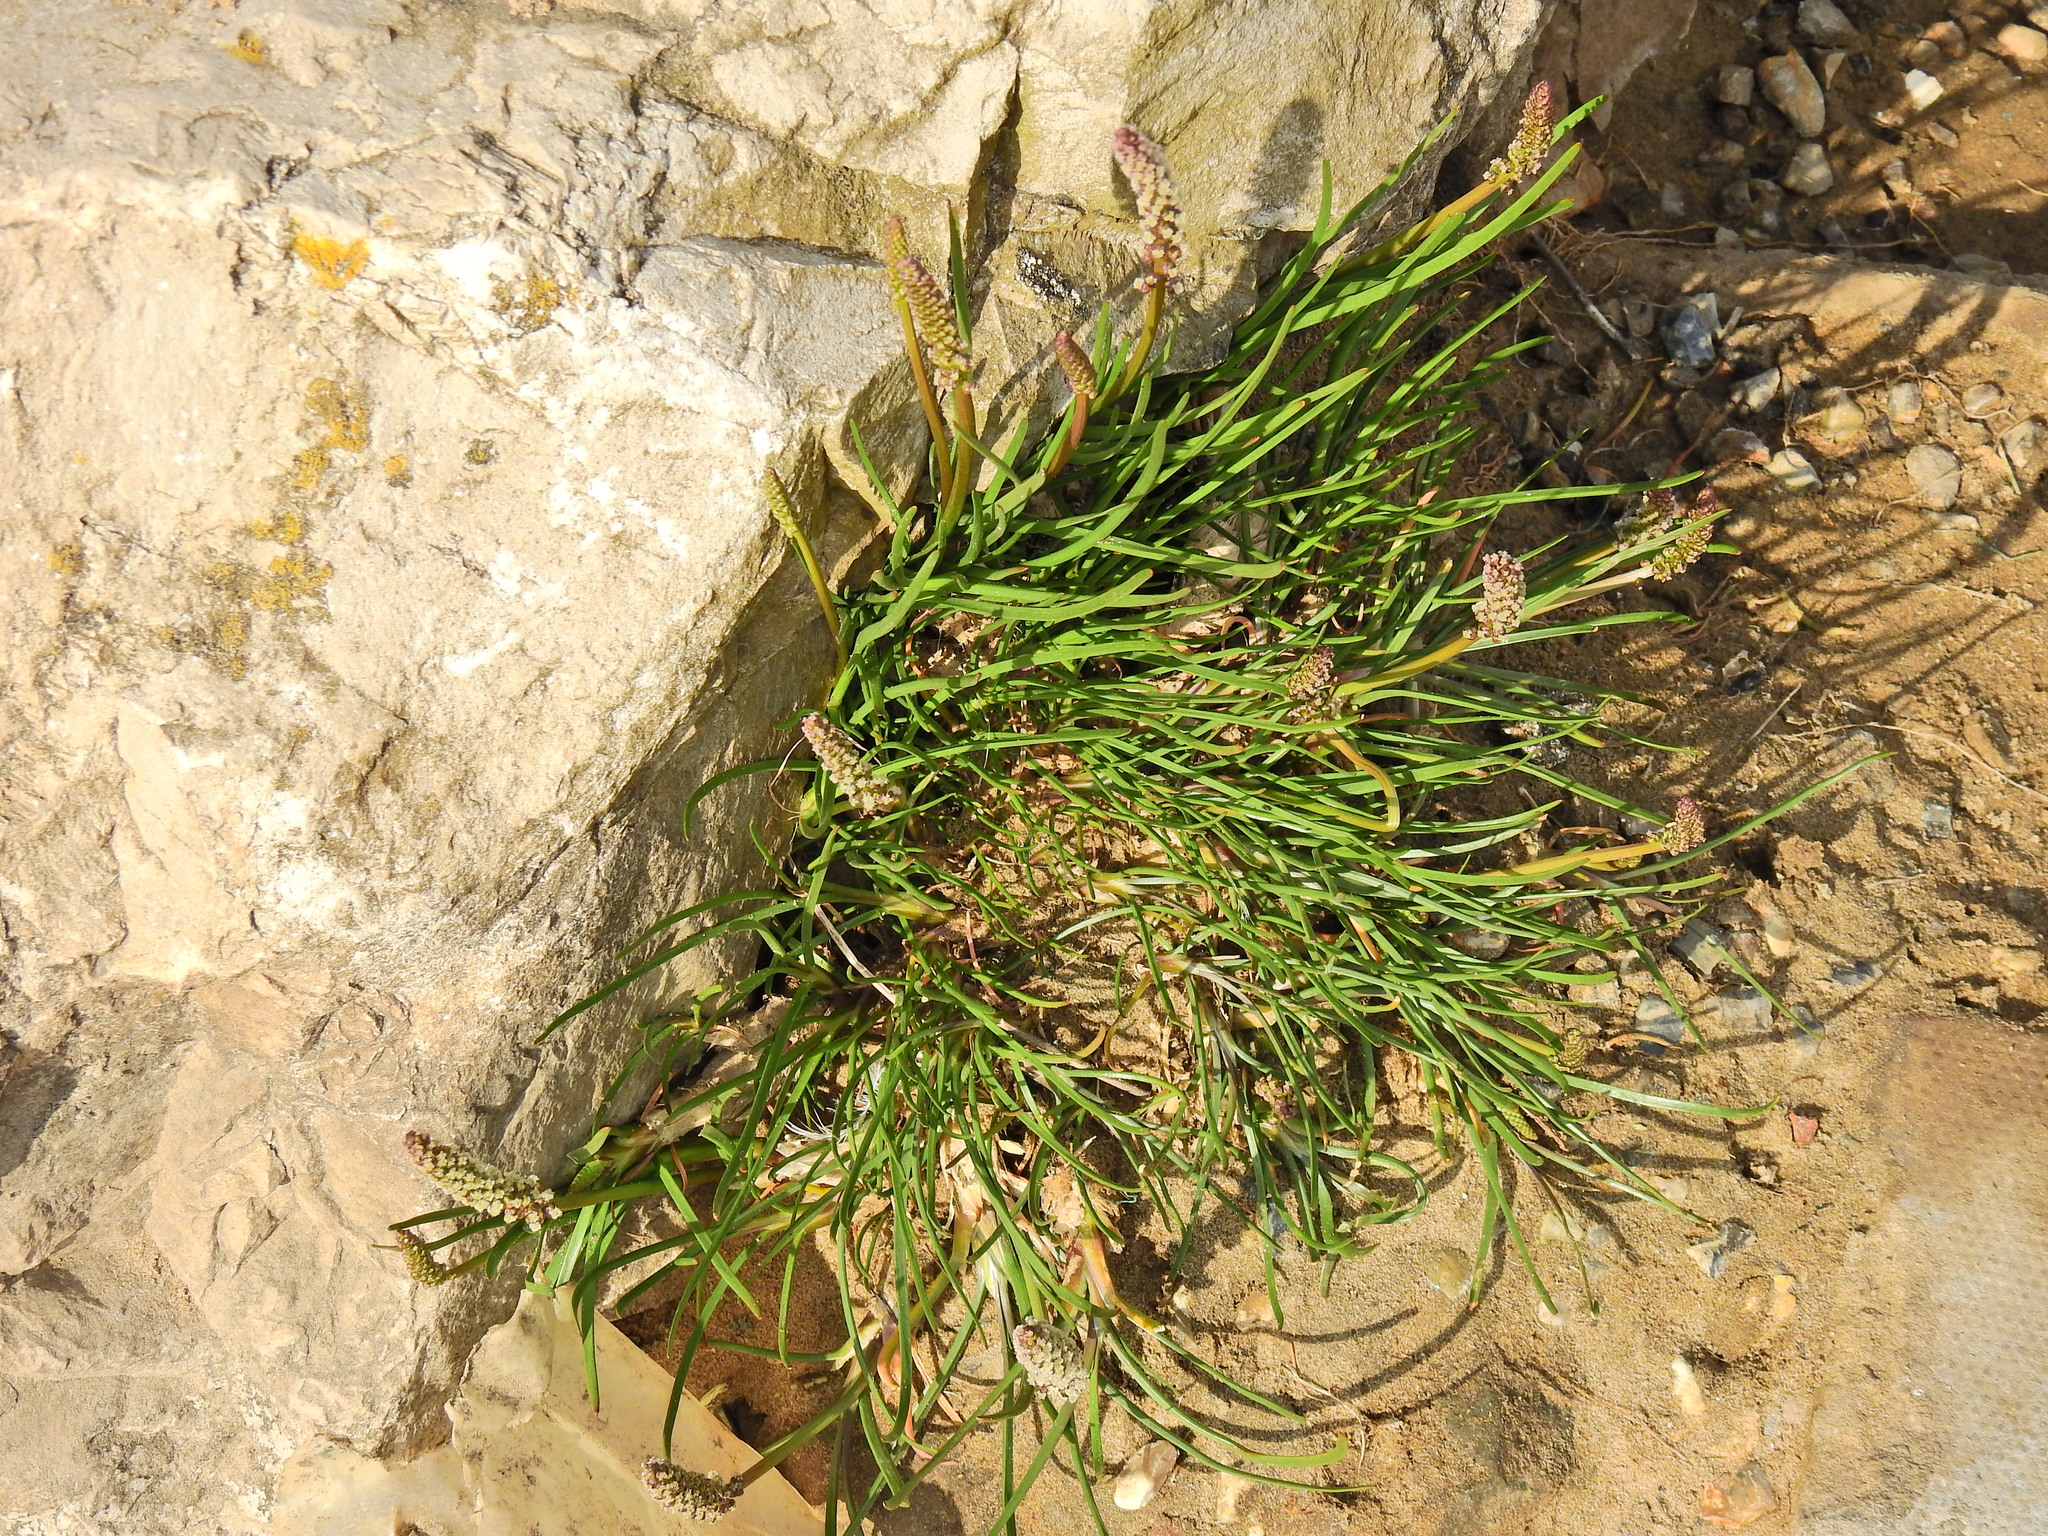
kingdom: Plantae
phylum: Tracheophyta
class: Magnoliopsida
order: Lamiales
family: Plantaginaceae
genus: Plantago
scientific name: Plantago maritima
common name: Sea plantain
